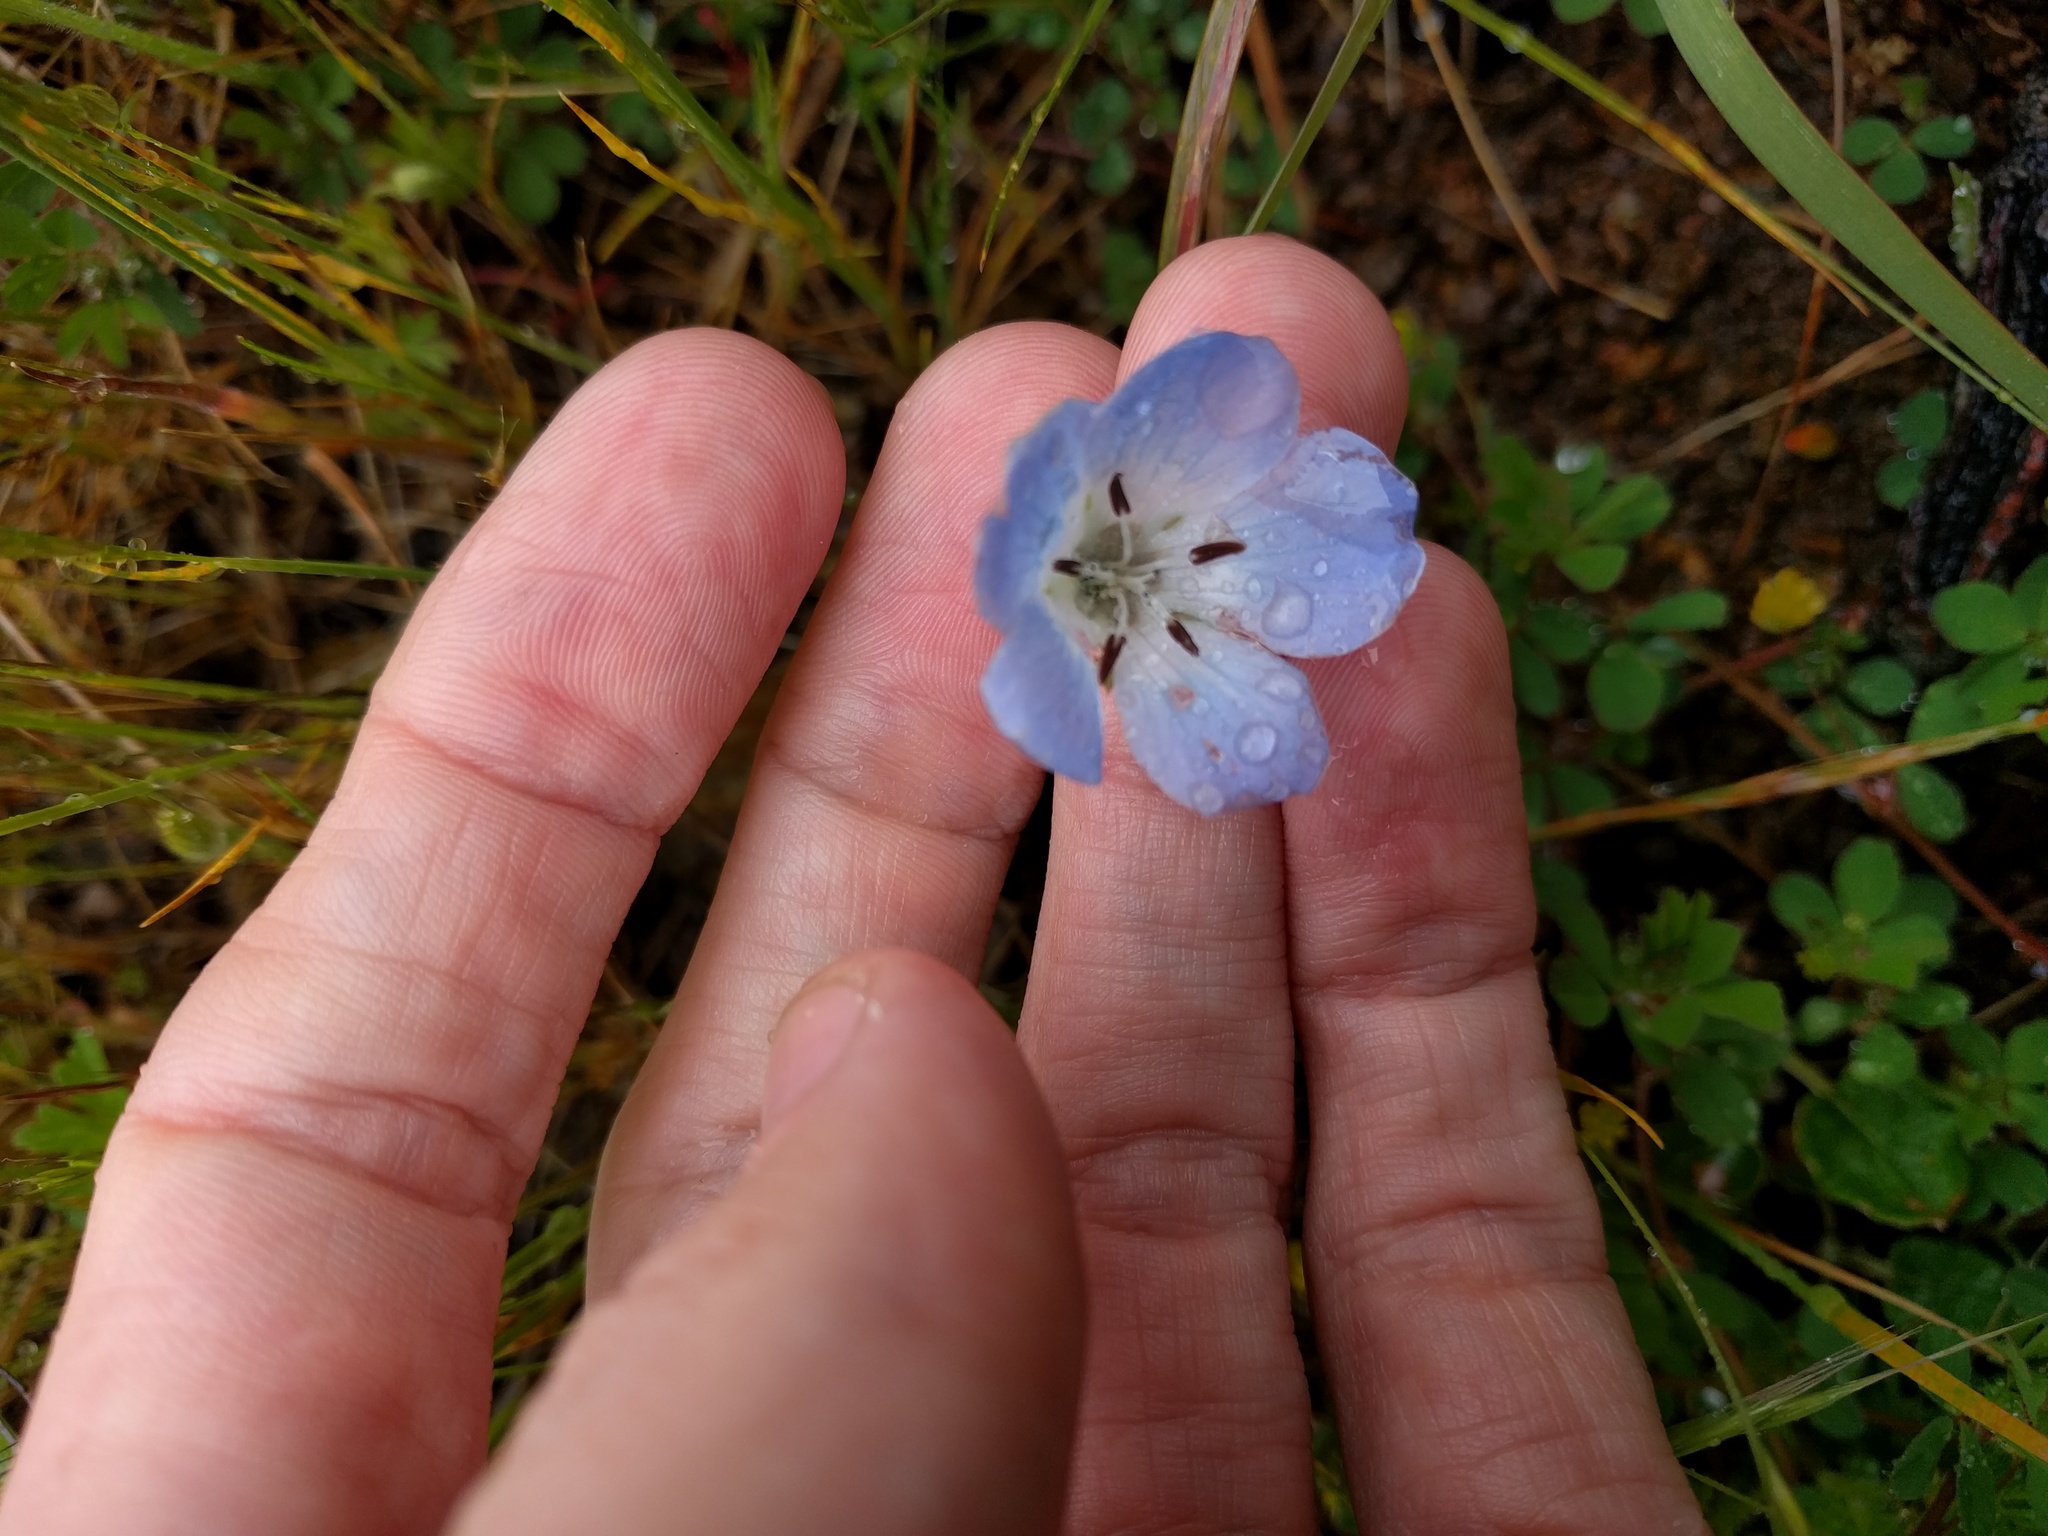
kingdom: Plantae
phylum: Tracheophyta
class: Magnoliopsida
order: Boraginales
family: Hydrophyllaceae
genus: Nemophila
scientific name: Nemophila menziesii
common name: Baby's-blue-eyes
